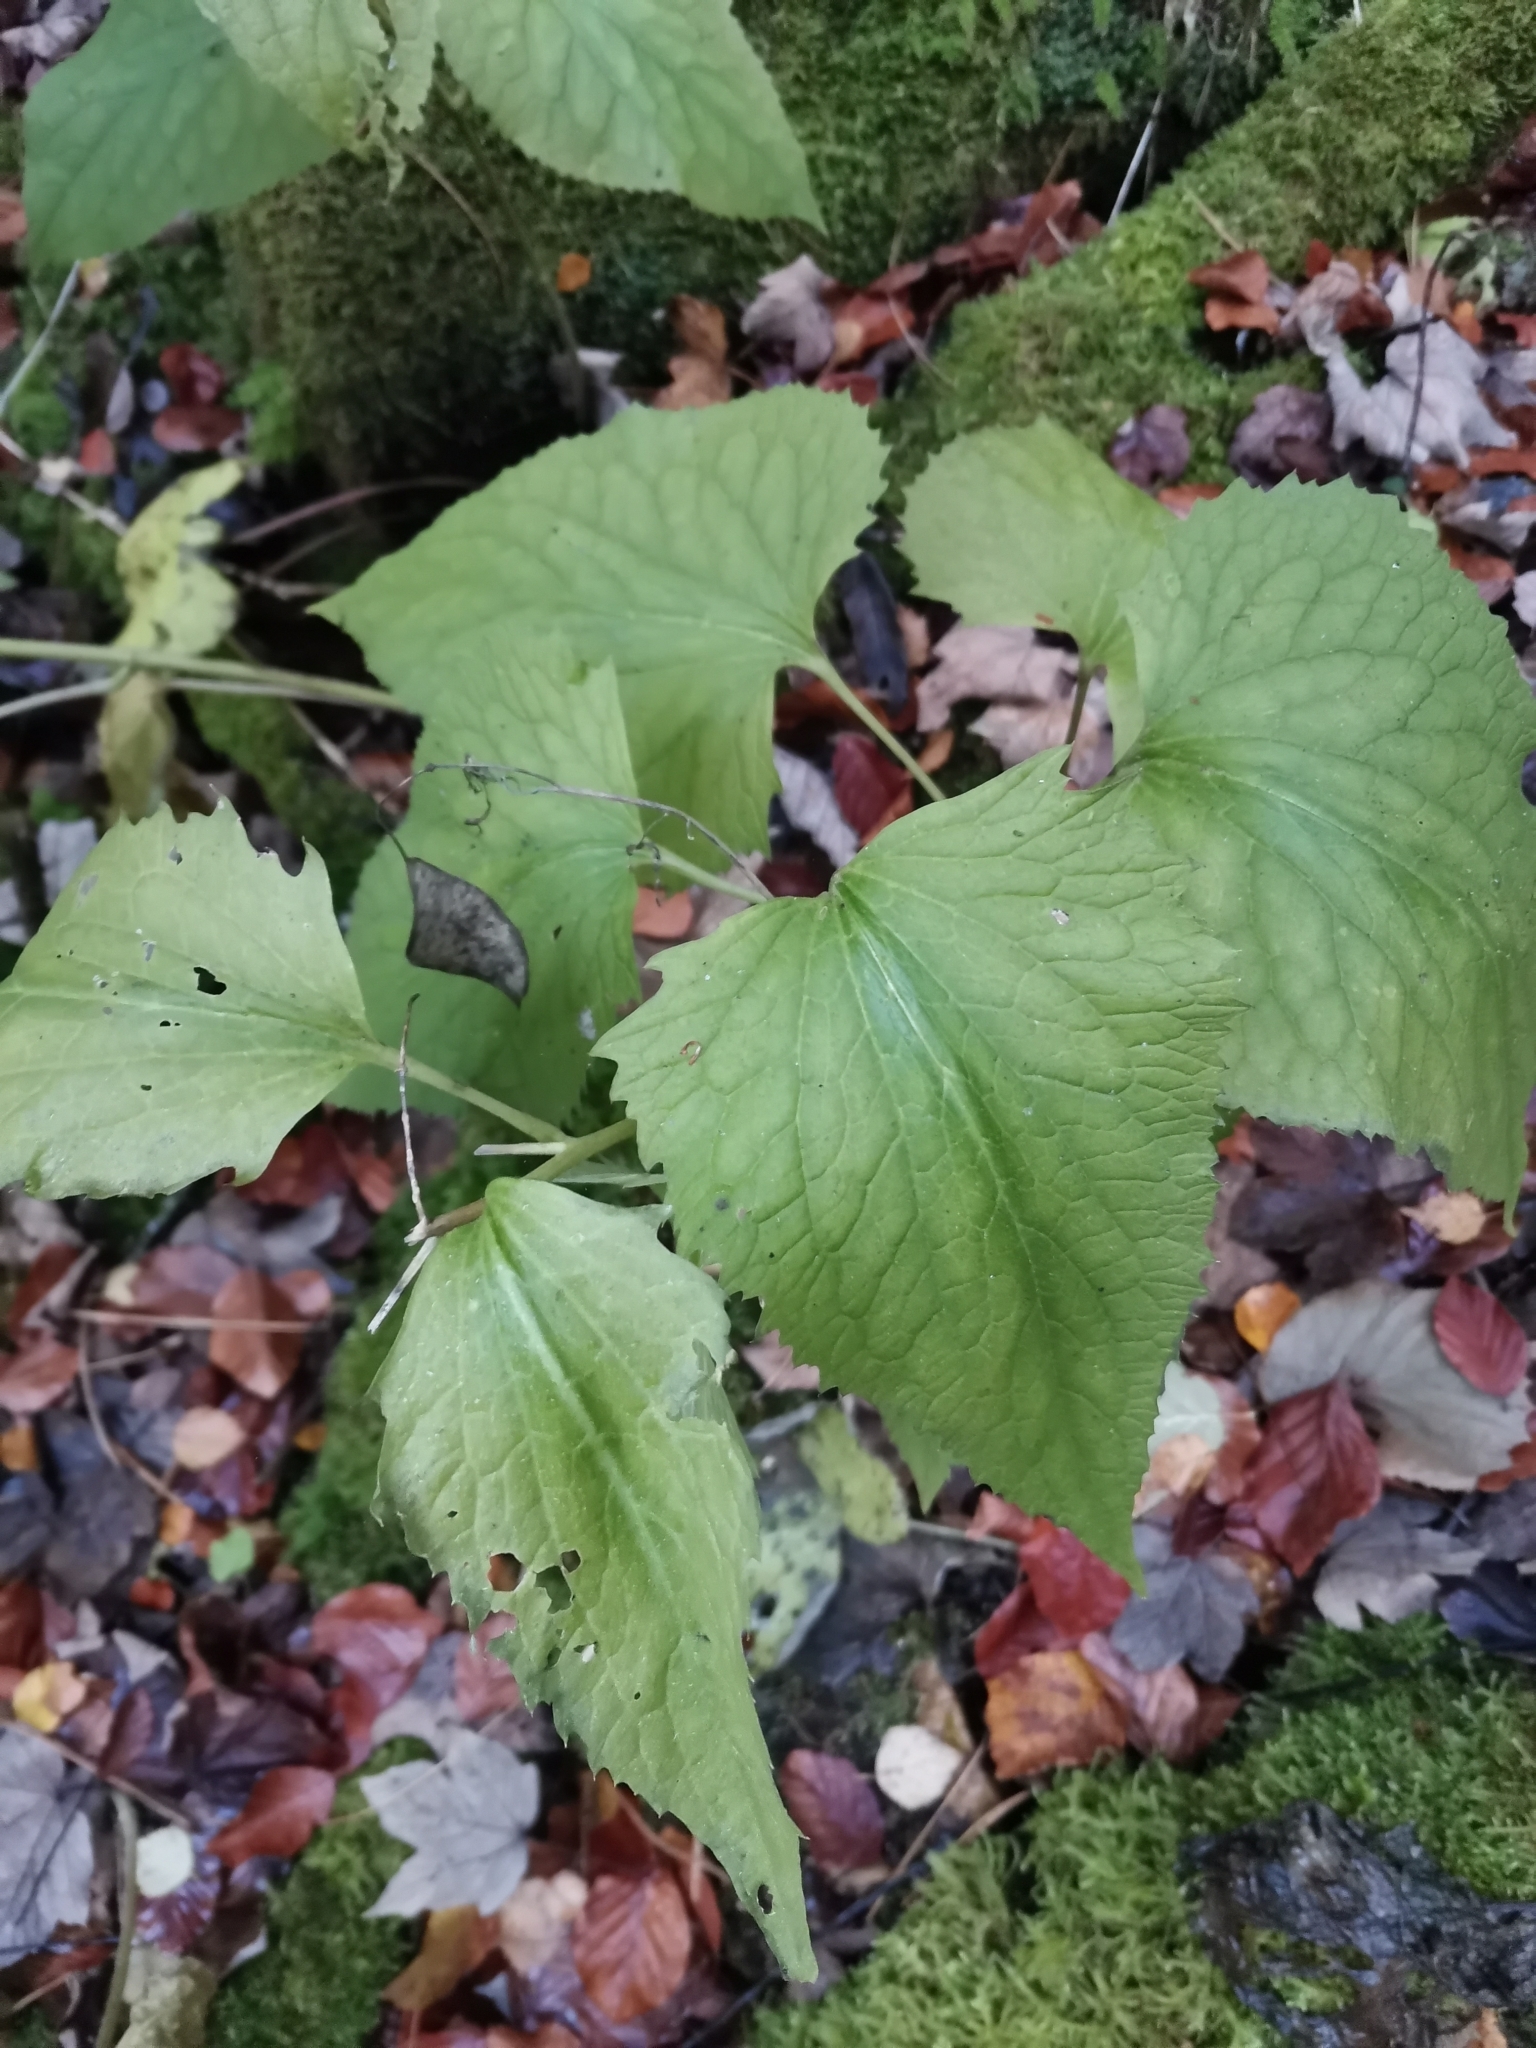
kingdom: Plantae
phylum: Tracheophyta
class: Magnoliopsida
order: Brassicales
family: Brassicaceae
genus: Lunaria
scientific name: Lunaria rediviva
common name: Perennial honesty
